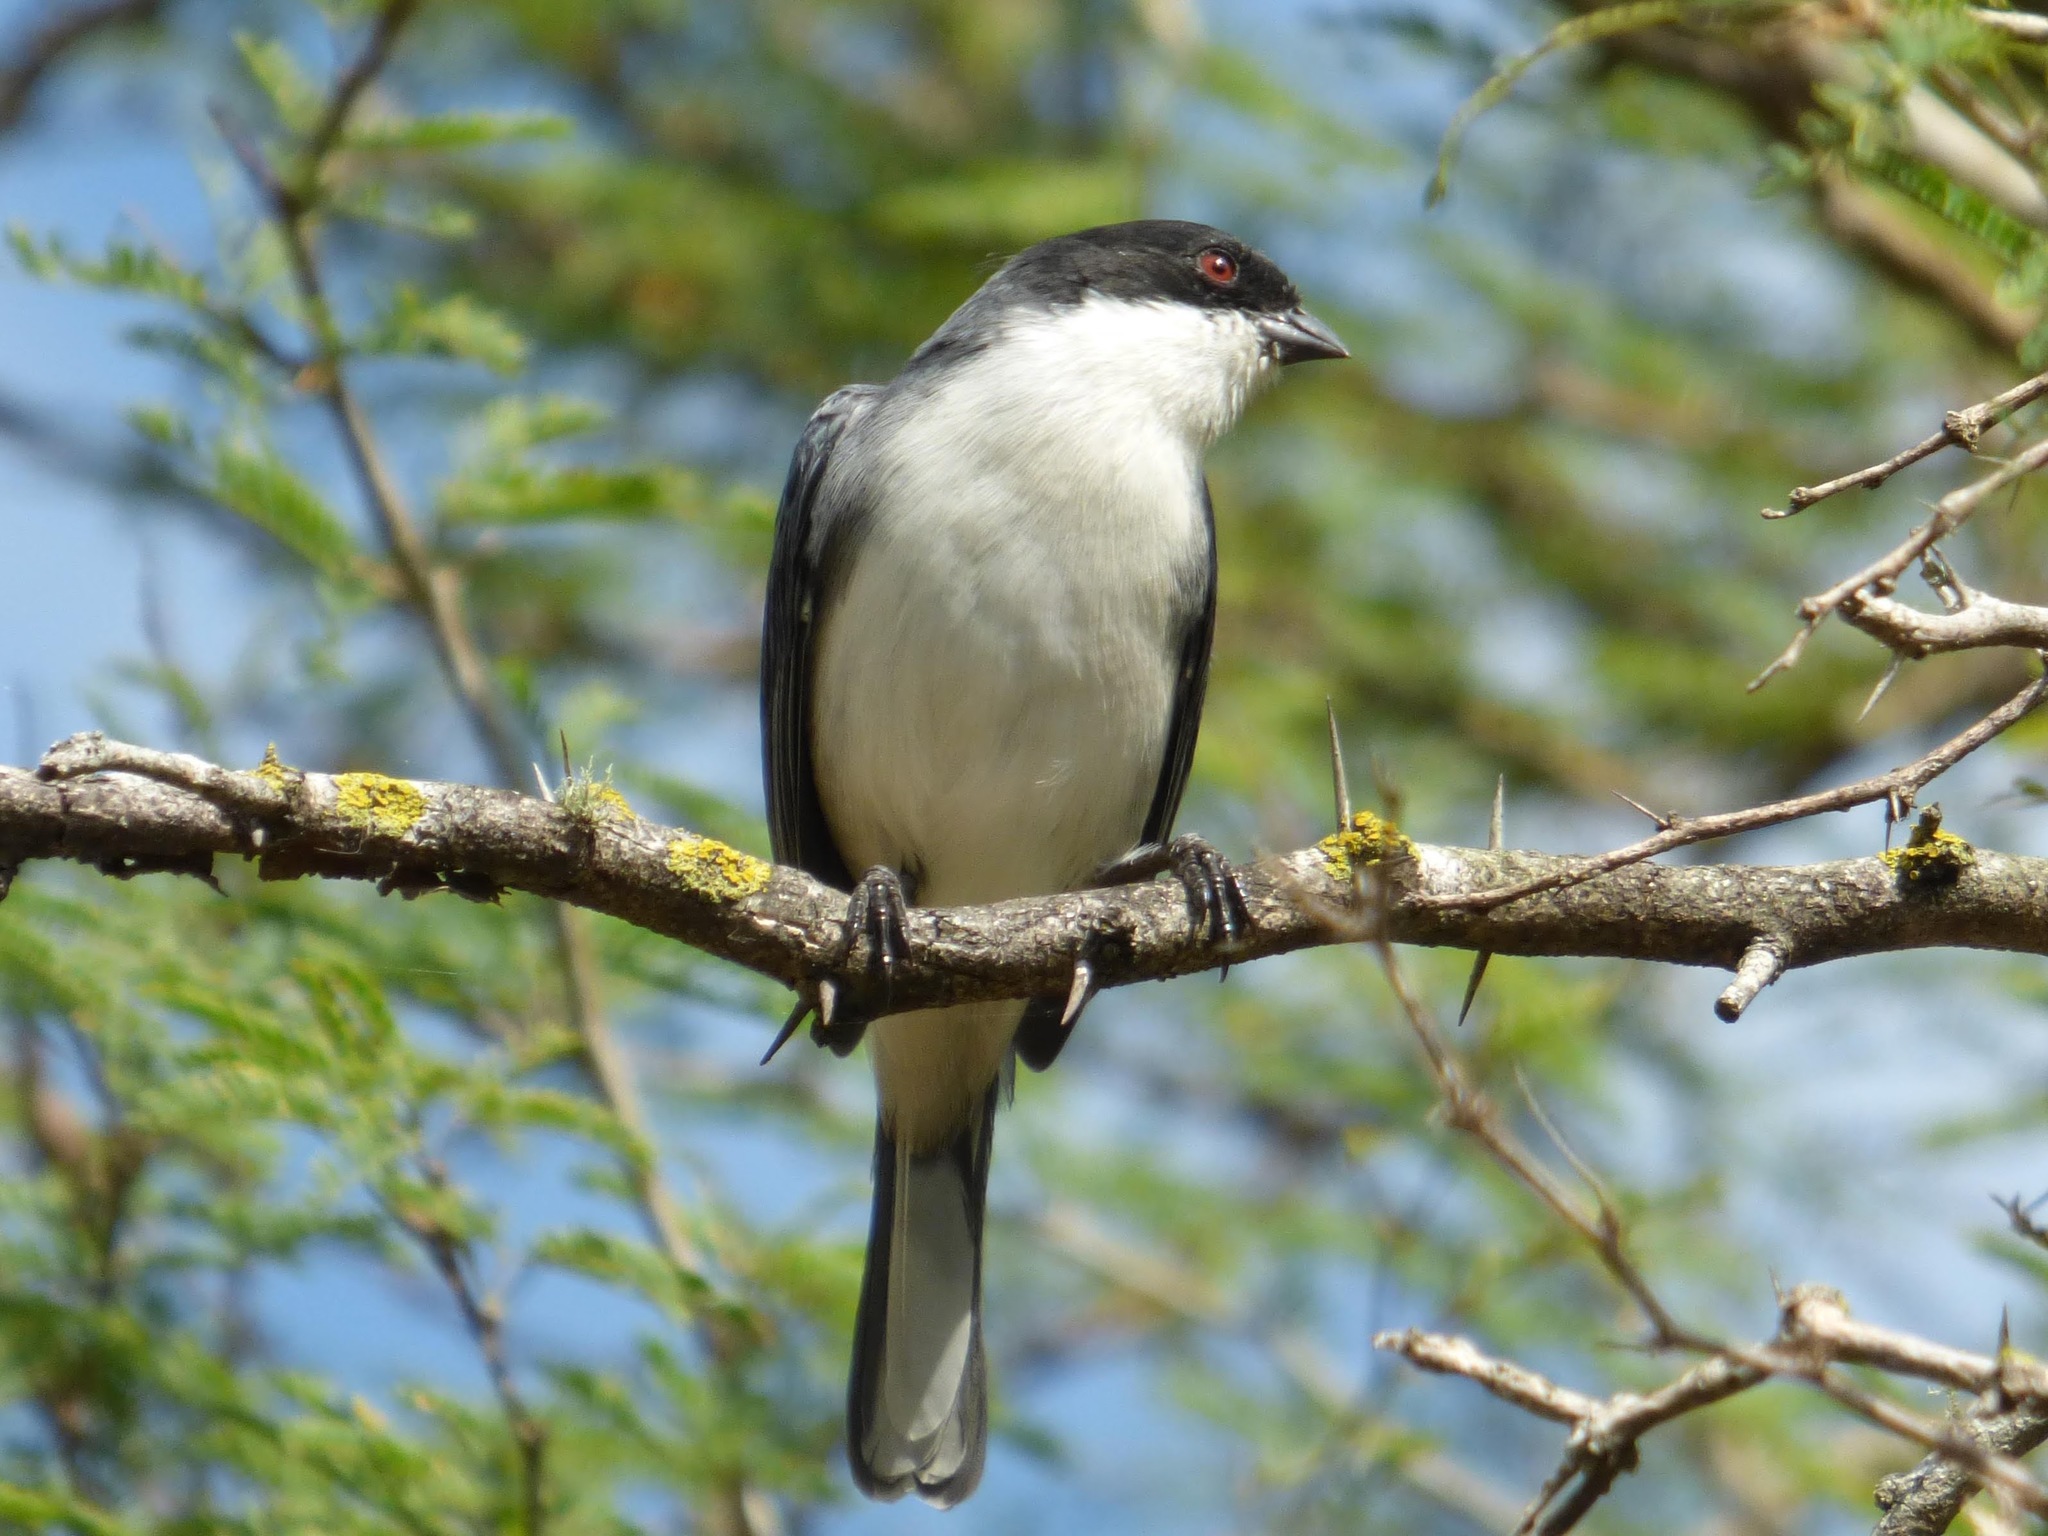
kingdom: Animalia
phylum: Chordata
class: Aves
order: Passeriformes
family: Thraupidae
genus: Microspingus
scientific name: Microspingus melanoleucus
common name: Black-capped warbling-finch
